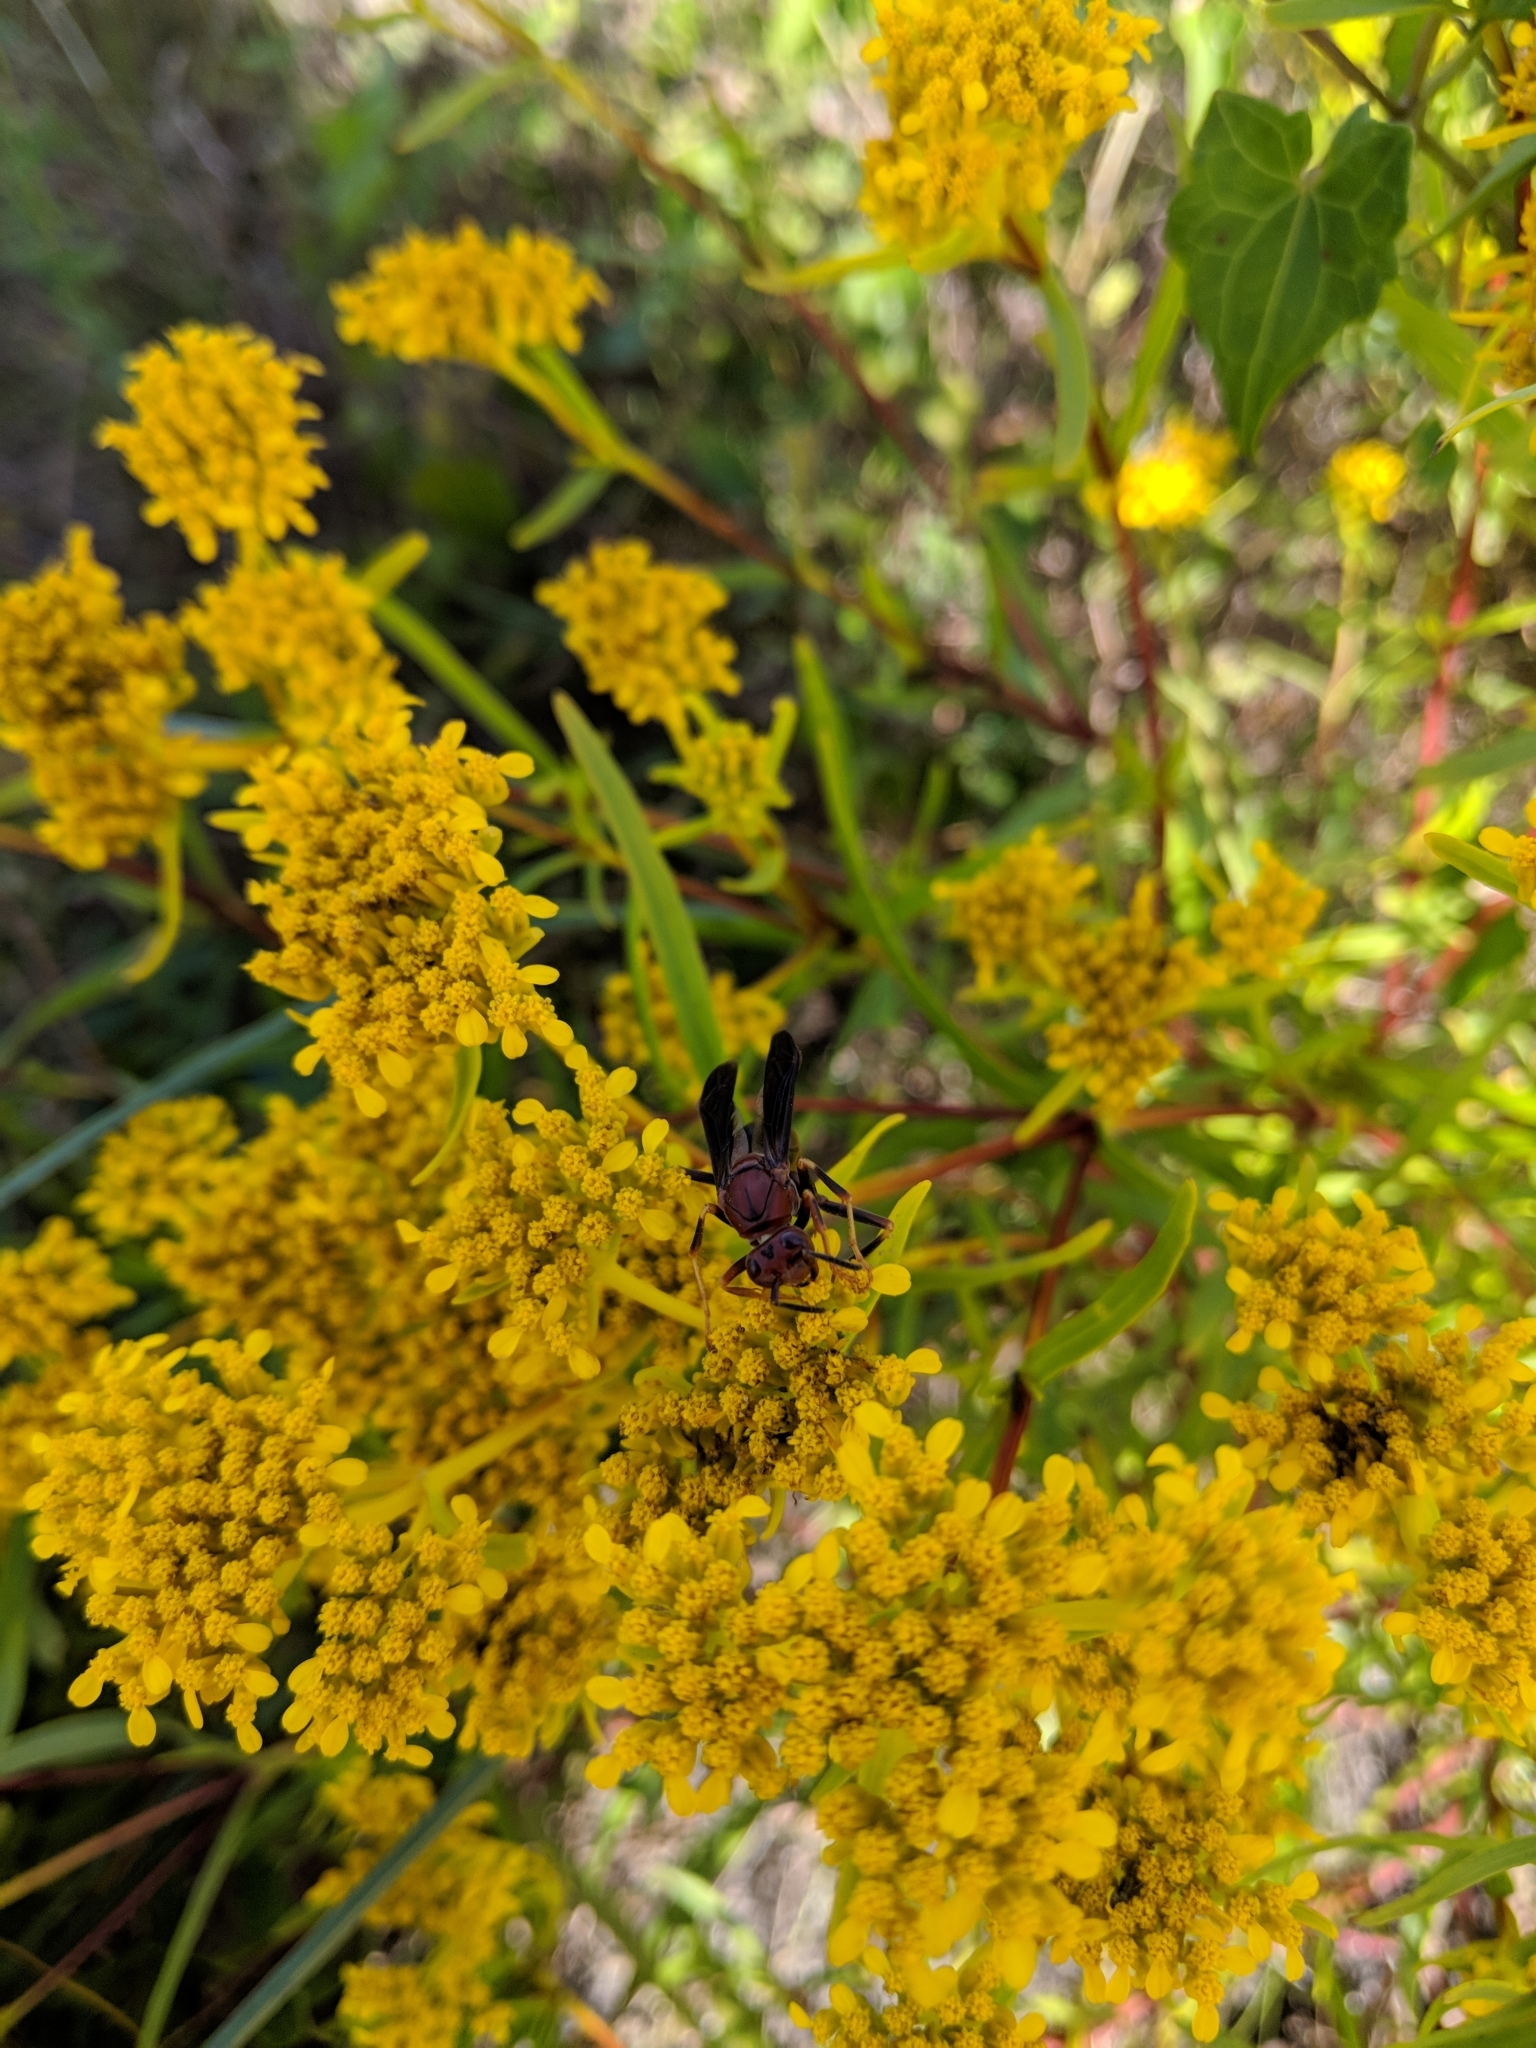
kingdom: Animalia
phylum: Arthropoda
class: Insecta
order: Hymenoptera
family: Eumenidae
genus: Polistes
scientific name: Polistes metricus
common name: Metric paper wasp
